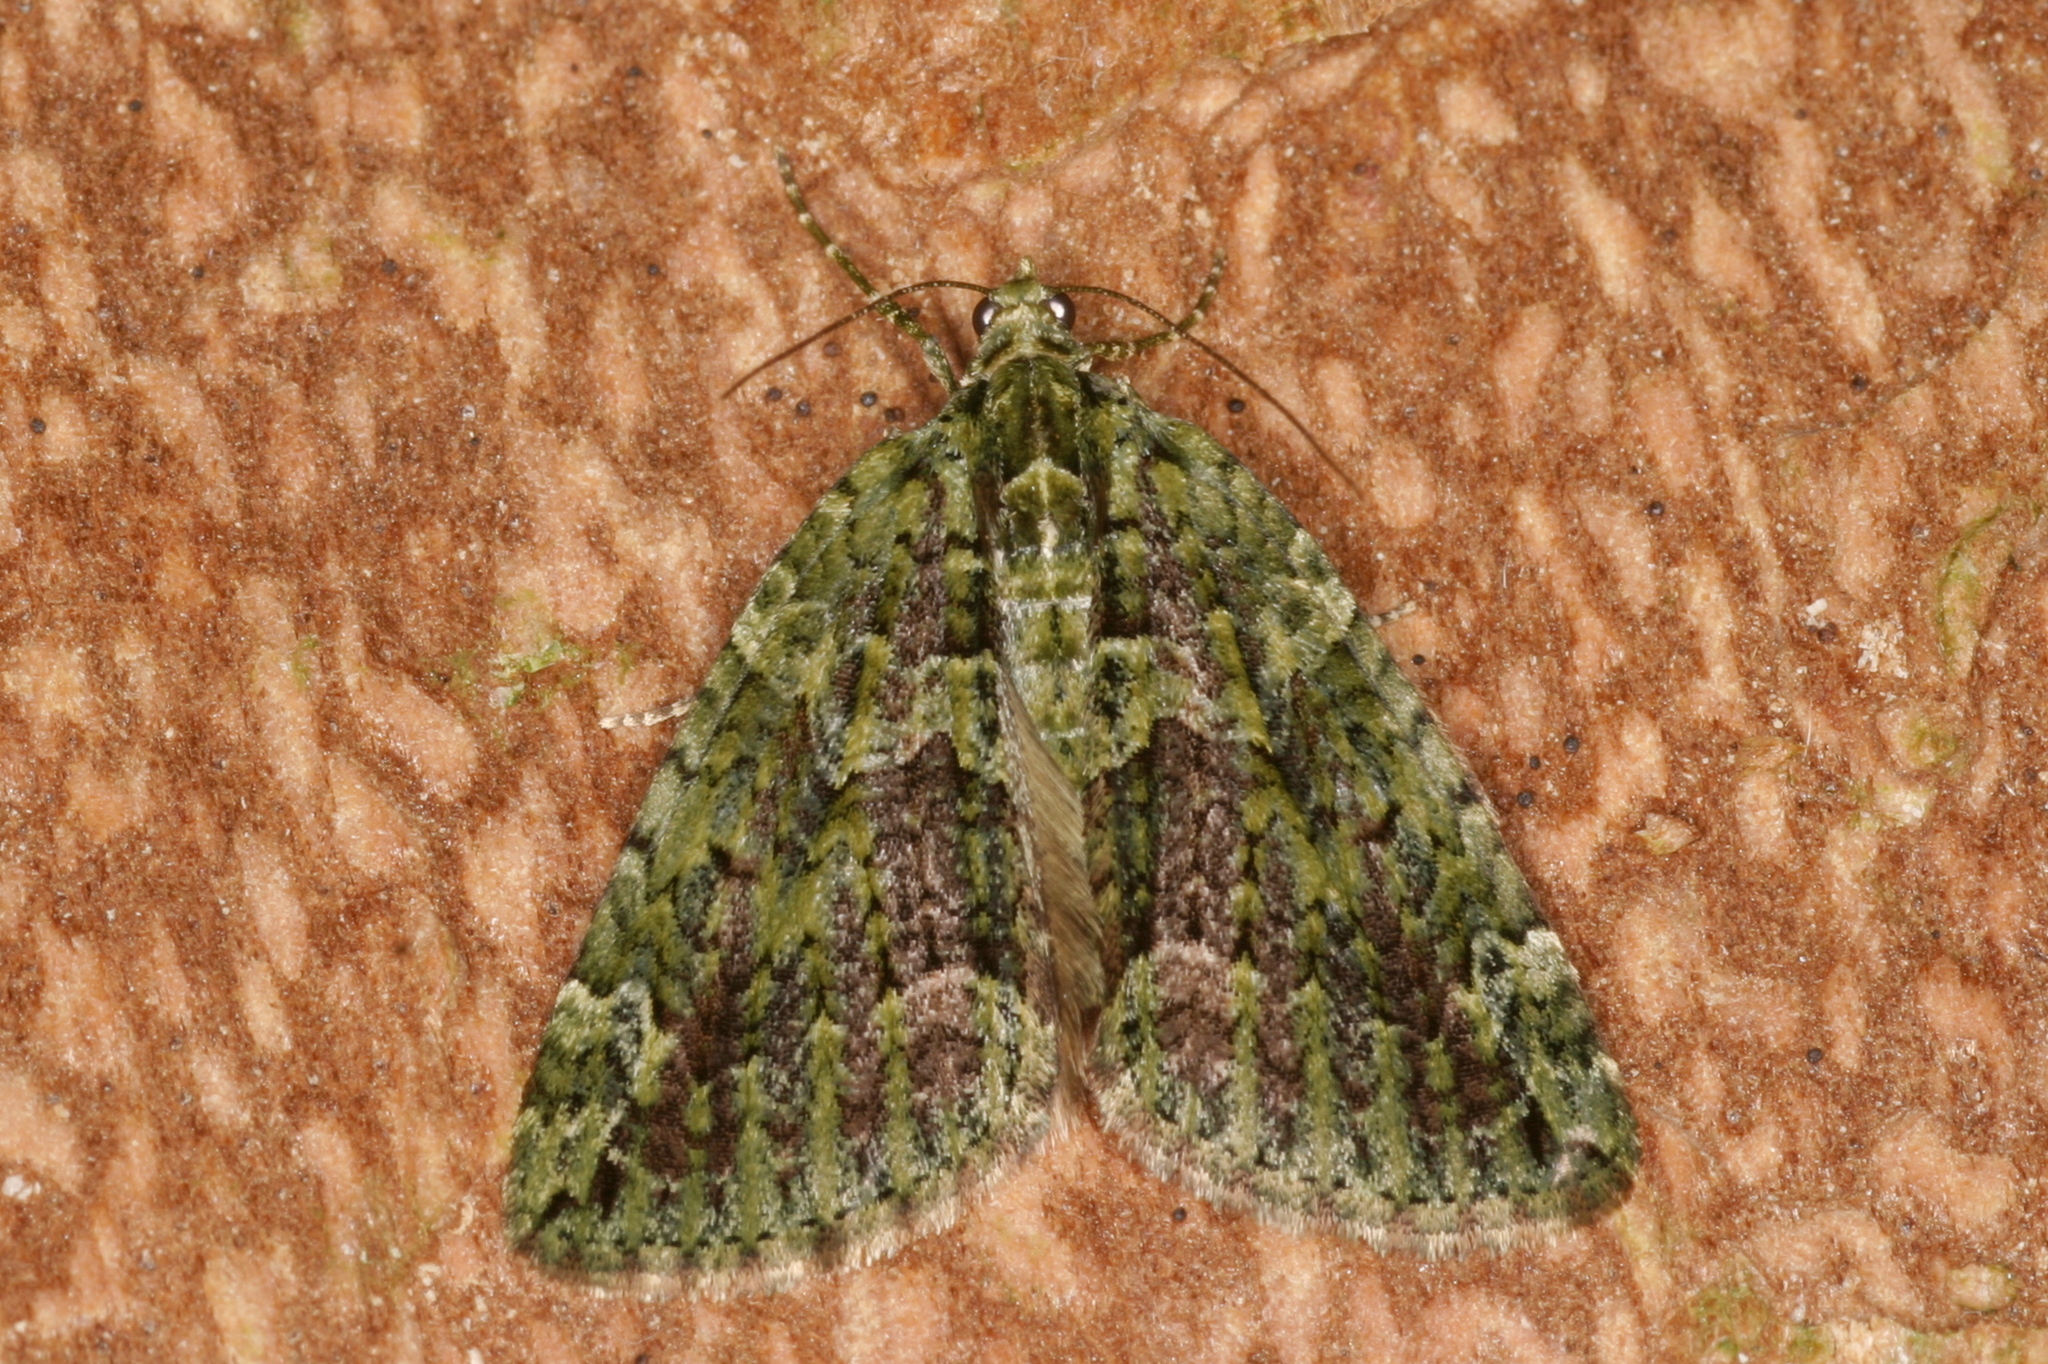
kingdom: Animalia
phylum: Arthropoda
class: Insecta
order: Lepidoptera
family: Geometridae
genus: Chloroclysta
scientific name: Chloroclysta siterata
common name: Red-green carpet
